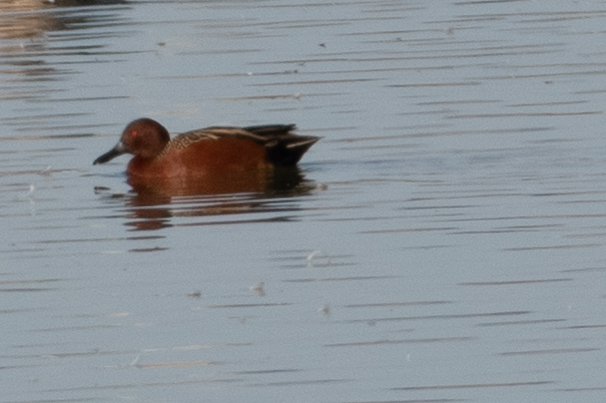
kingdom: Animalia
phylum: Chordata
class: Aves
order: Anseriformes
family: Anatidae
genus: Spatula
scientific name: Spatula cyanoptera
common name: Cinnamon teal
